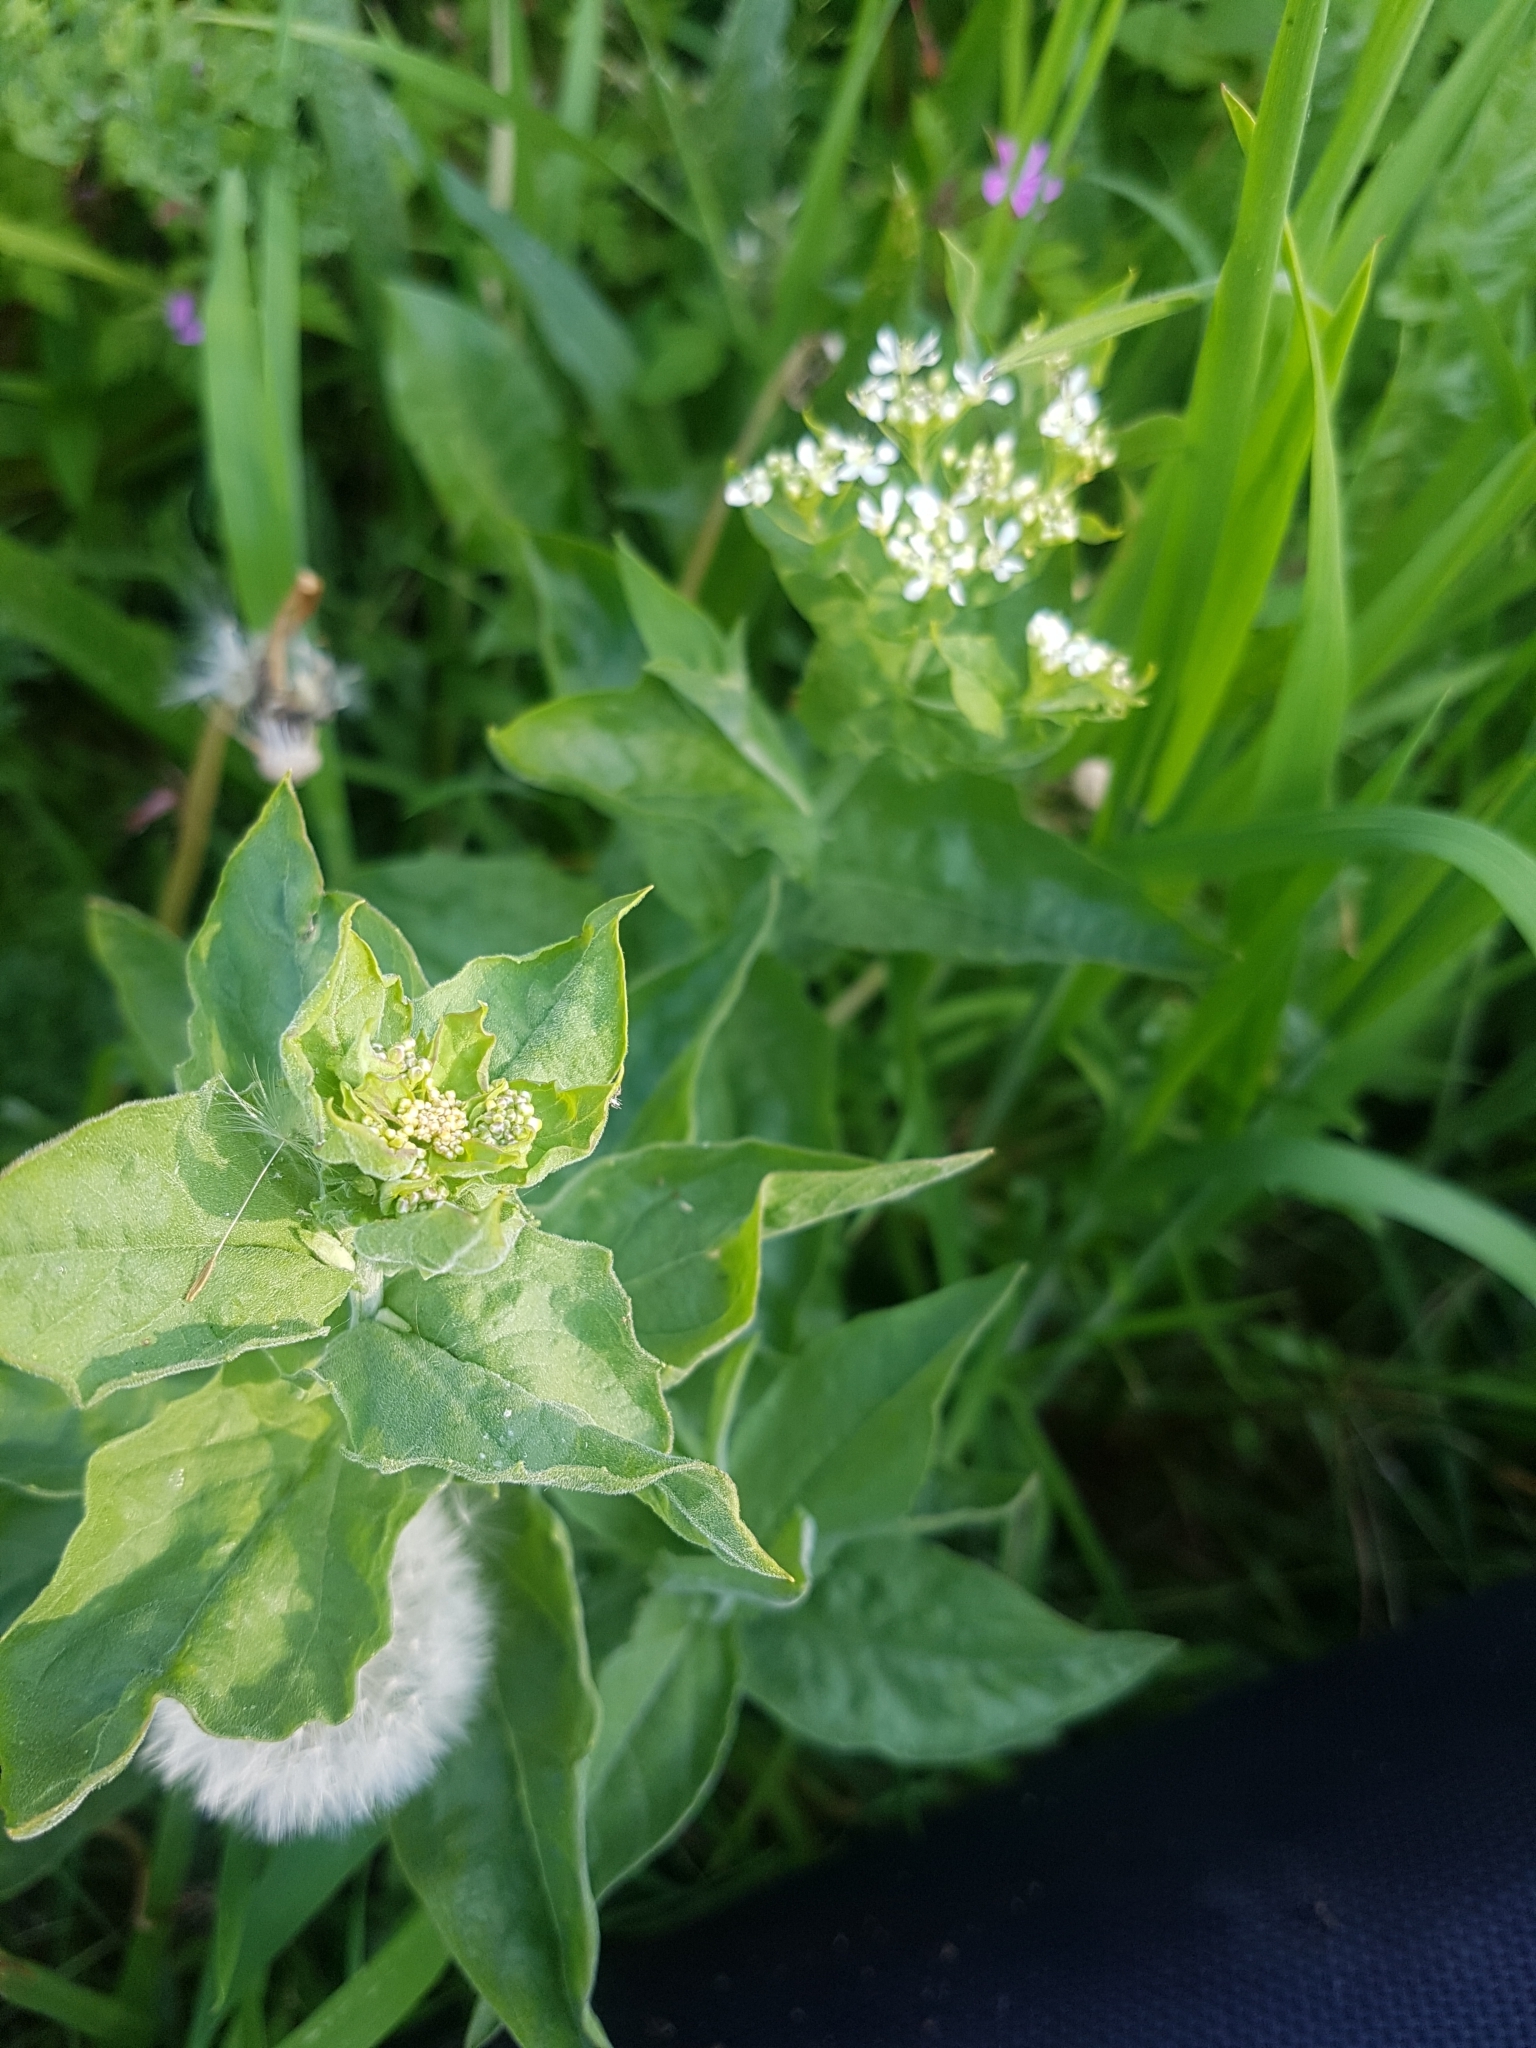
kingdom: Plantae
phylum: Tracheophyta
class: Magnoliopsida
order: Brassicales
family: Brassicaceae
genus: Lepidium
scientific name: Lepidium draba
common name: Hoary cress
